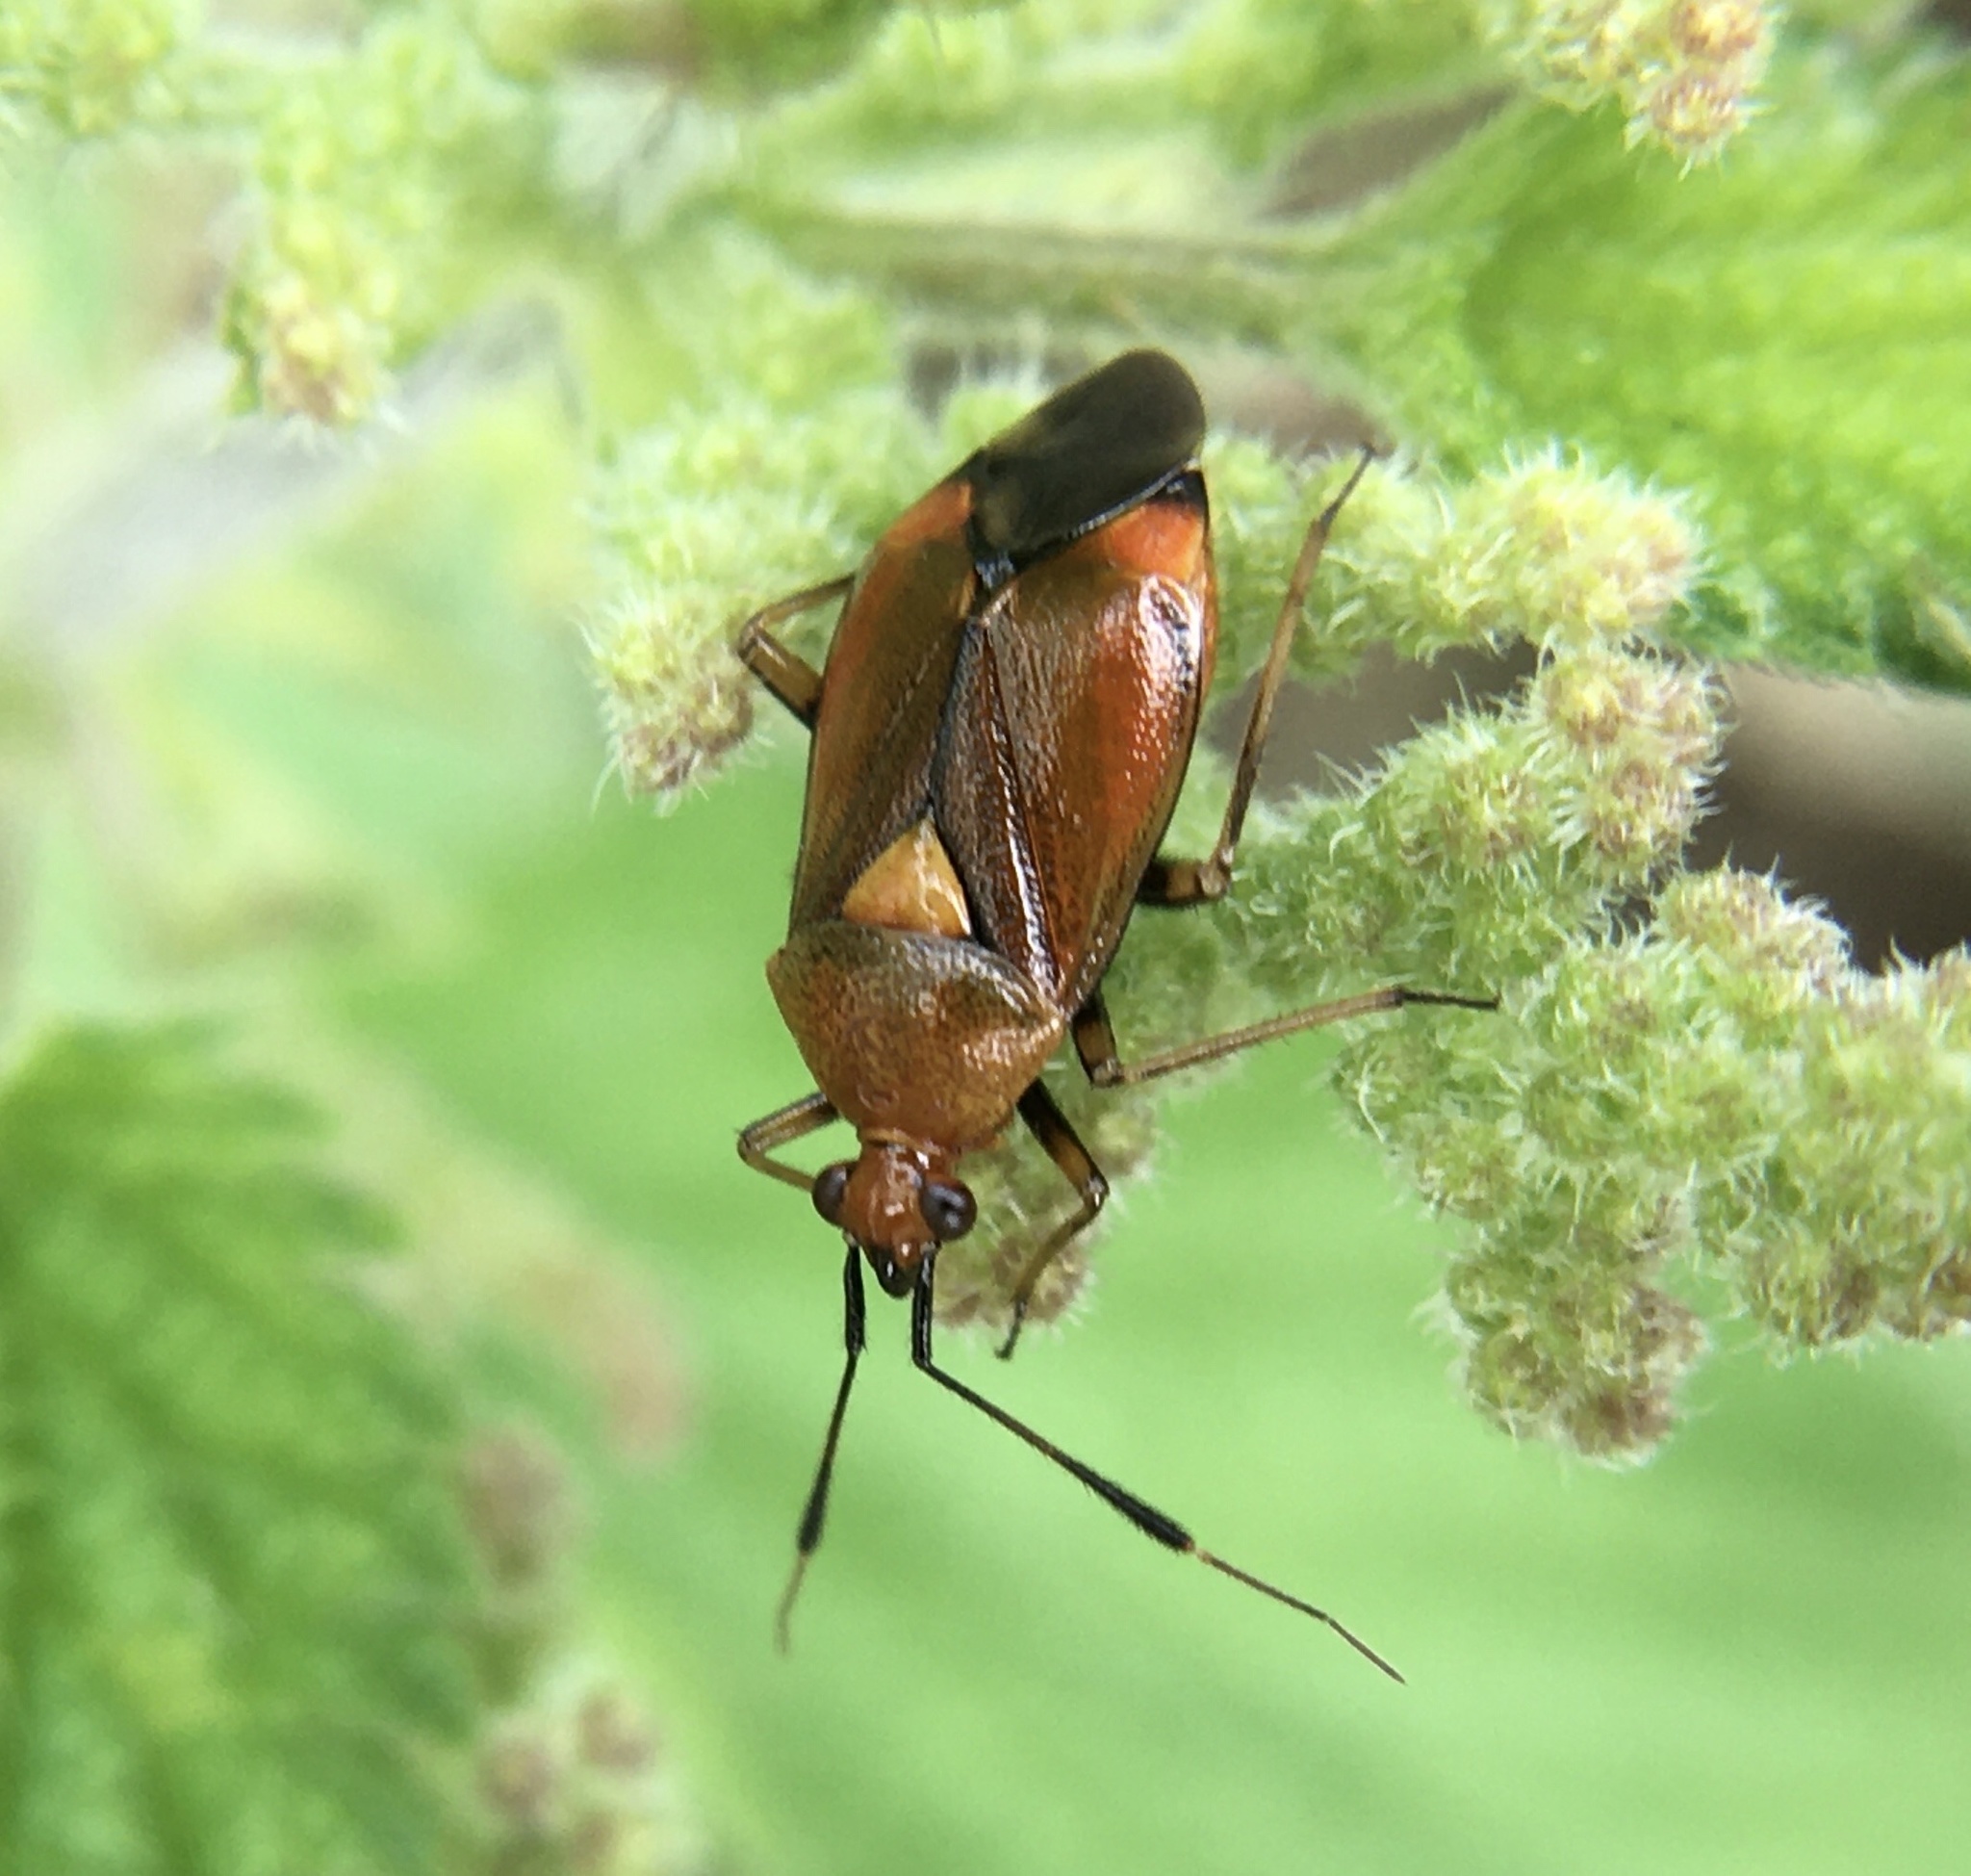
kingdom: Animalia
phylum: Arthropoda
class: Insecta
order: Hemiptera
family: Miridae
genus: Deraeocoris
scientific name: Deraeocoris ruber
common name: Plant bug
